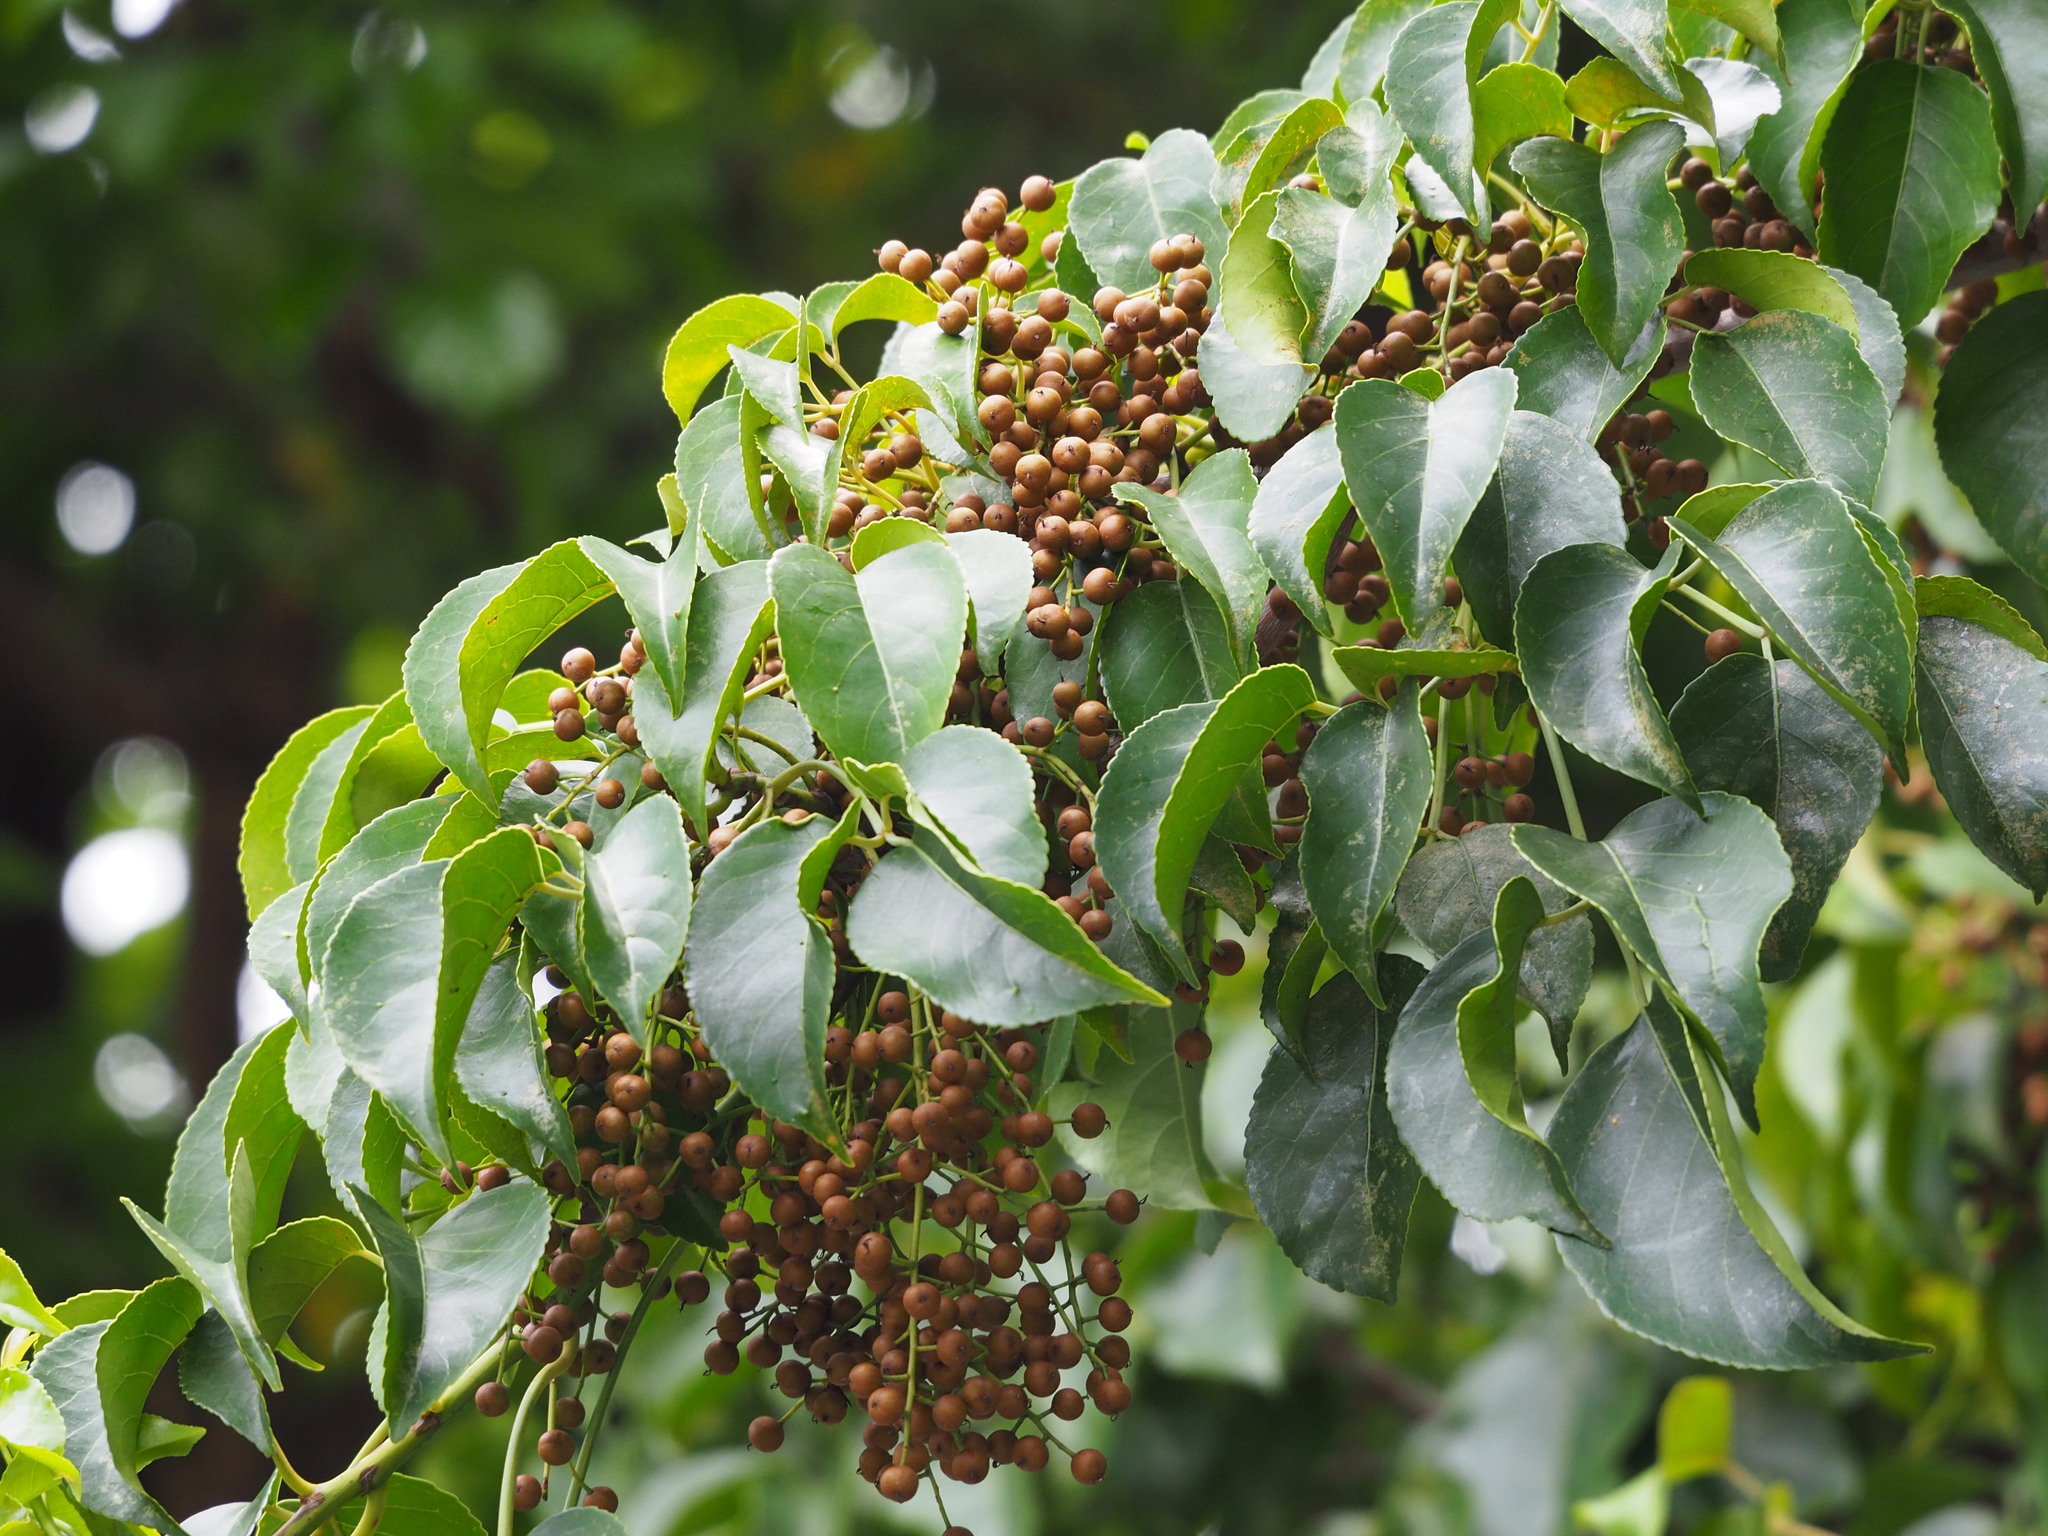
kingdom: Plantae
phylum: Tracheophyta
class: Magnoliopsida
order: Malpighiales
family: Phyllanthaceae
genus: Bischofia
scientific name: Bischofia javanica
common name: Javanese bishopwood
